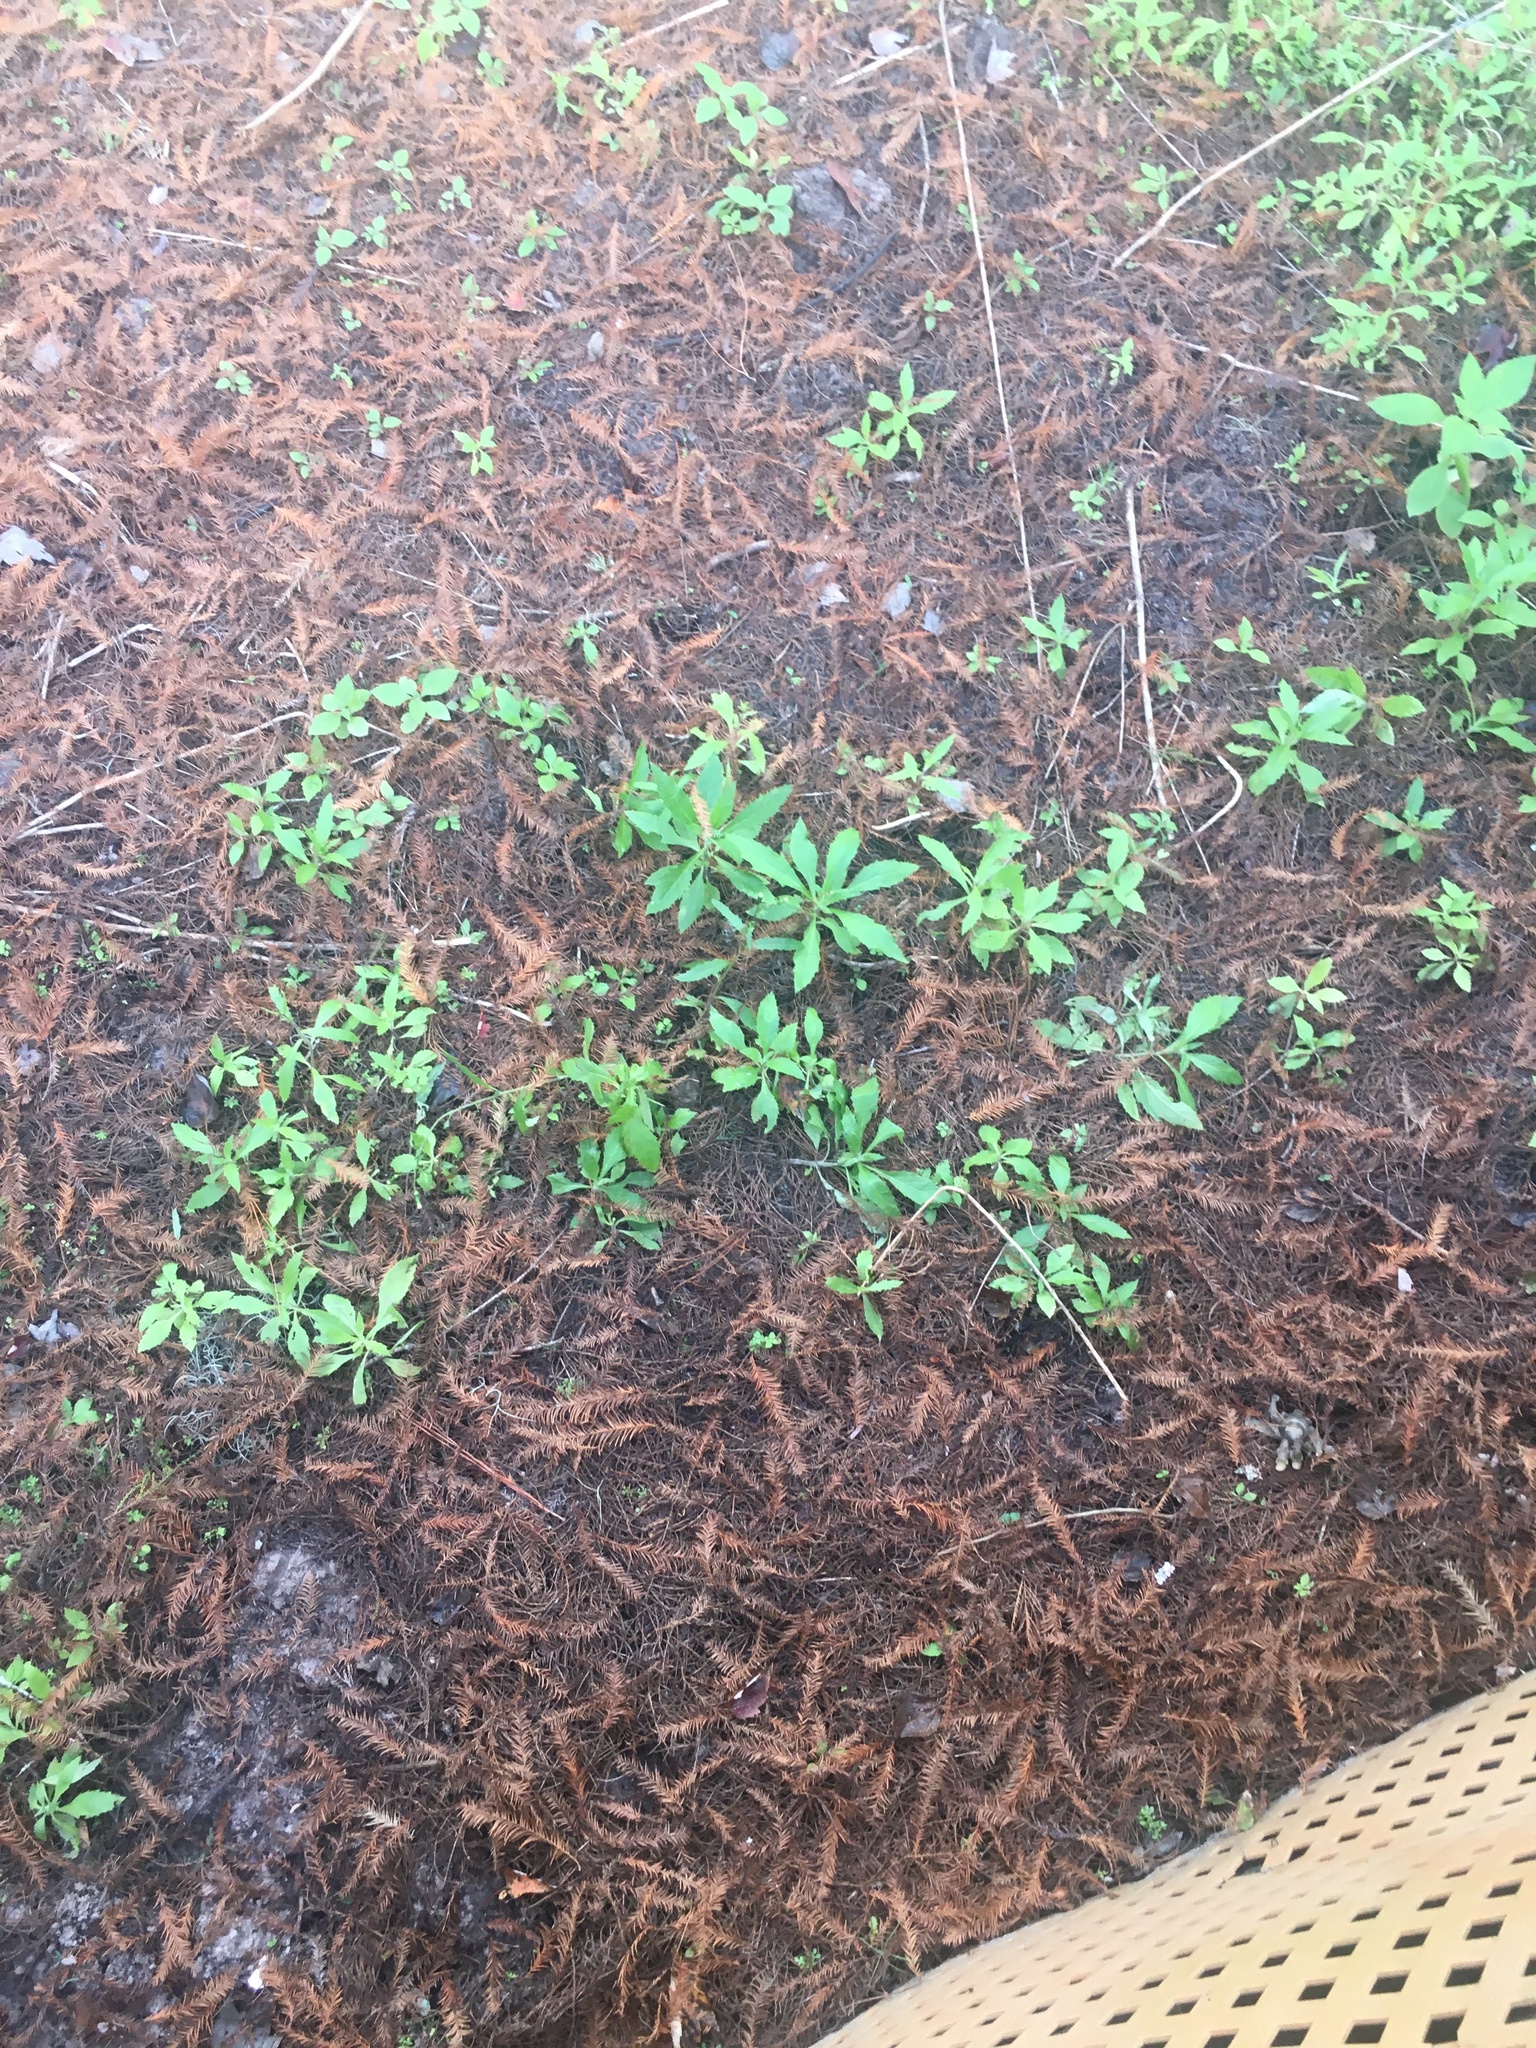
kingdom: Plantae
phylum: Tracheophyta
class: Magnoliopsida
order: Asterales
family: Asteraceae
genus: Erechtites
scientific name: Erechtites hieraciifolius
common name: American burnweed
